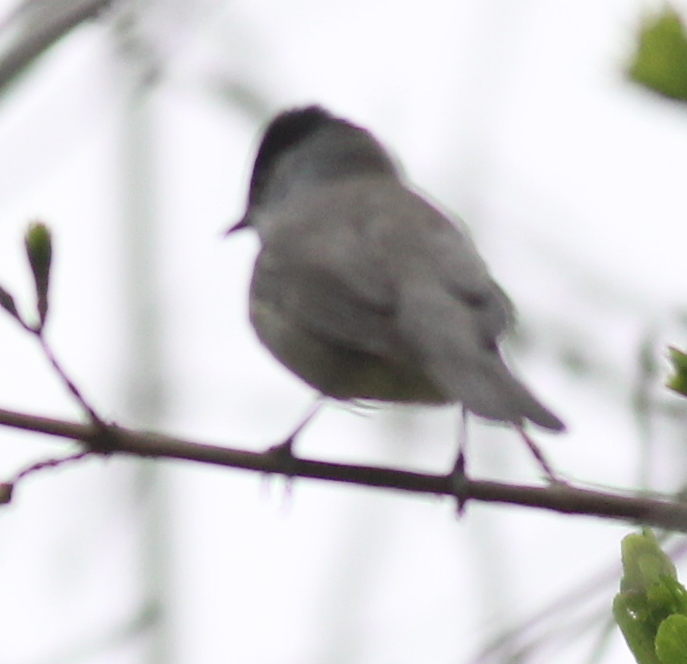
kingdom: Animalia
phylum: Chordata
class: Aves
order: Passeriformes
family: Sylviidae
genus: Sylvia
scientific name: Sylvia atricapilla
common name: Eurasian blackcap
